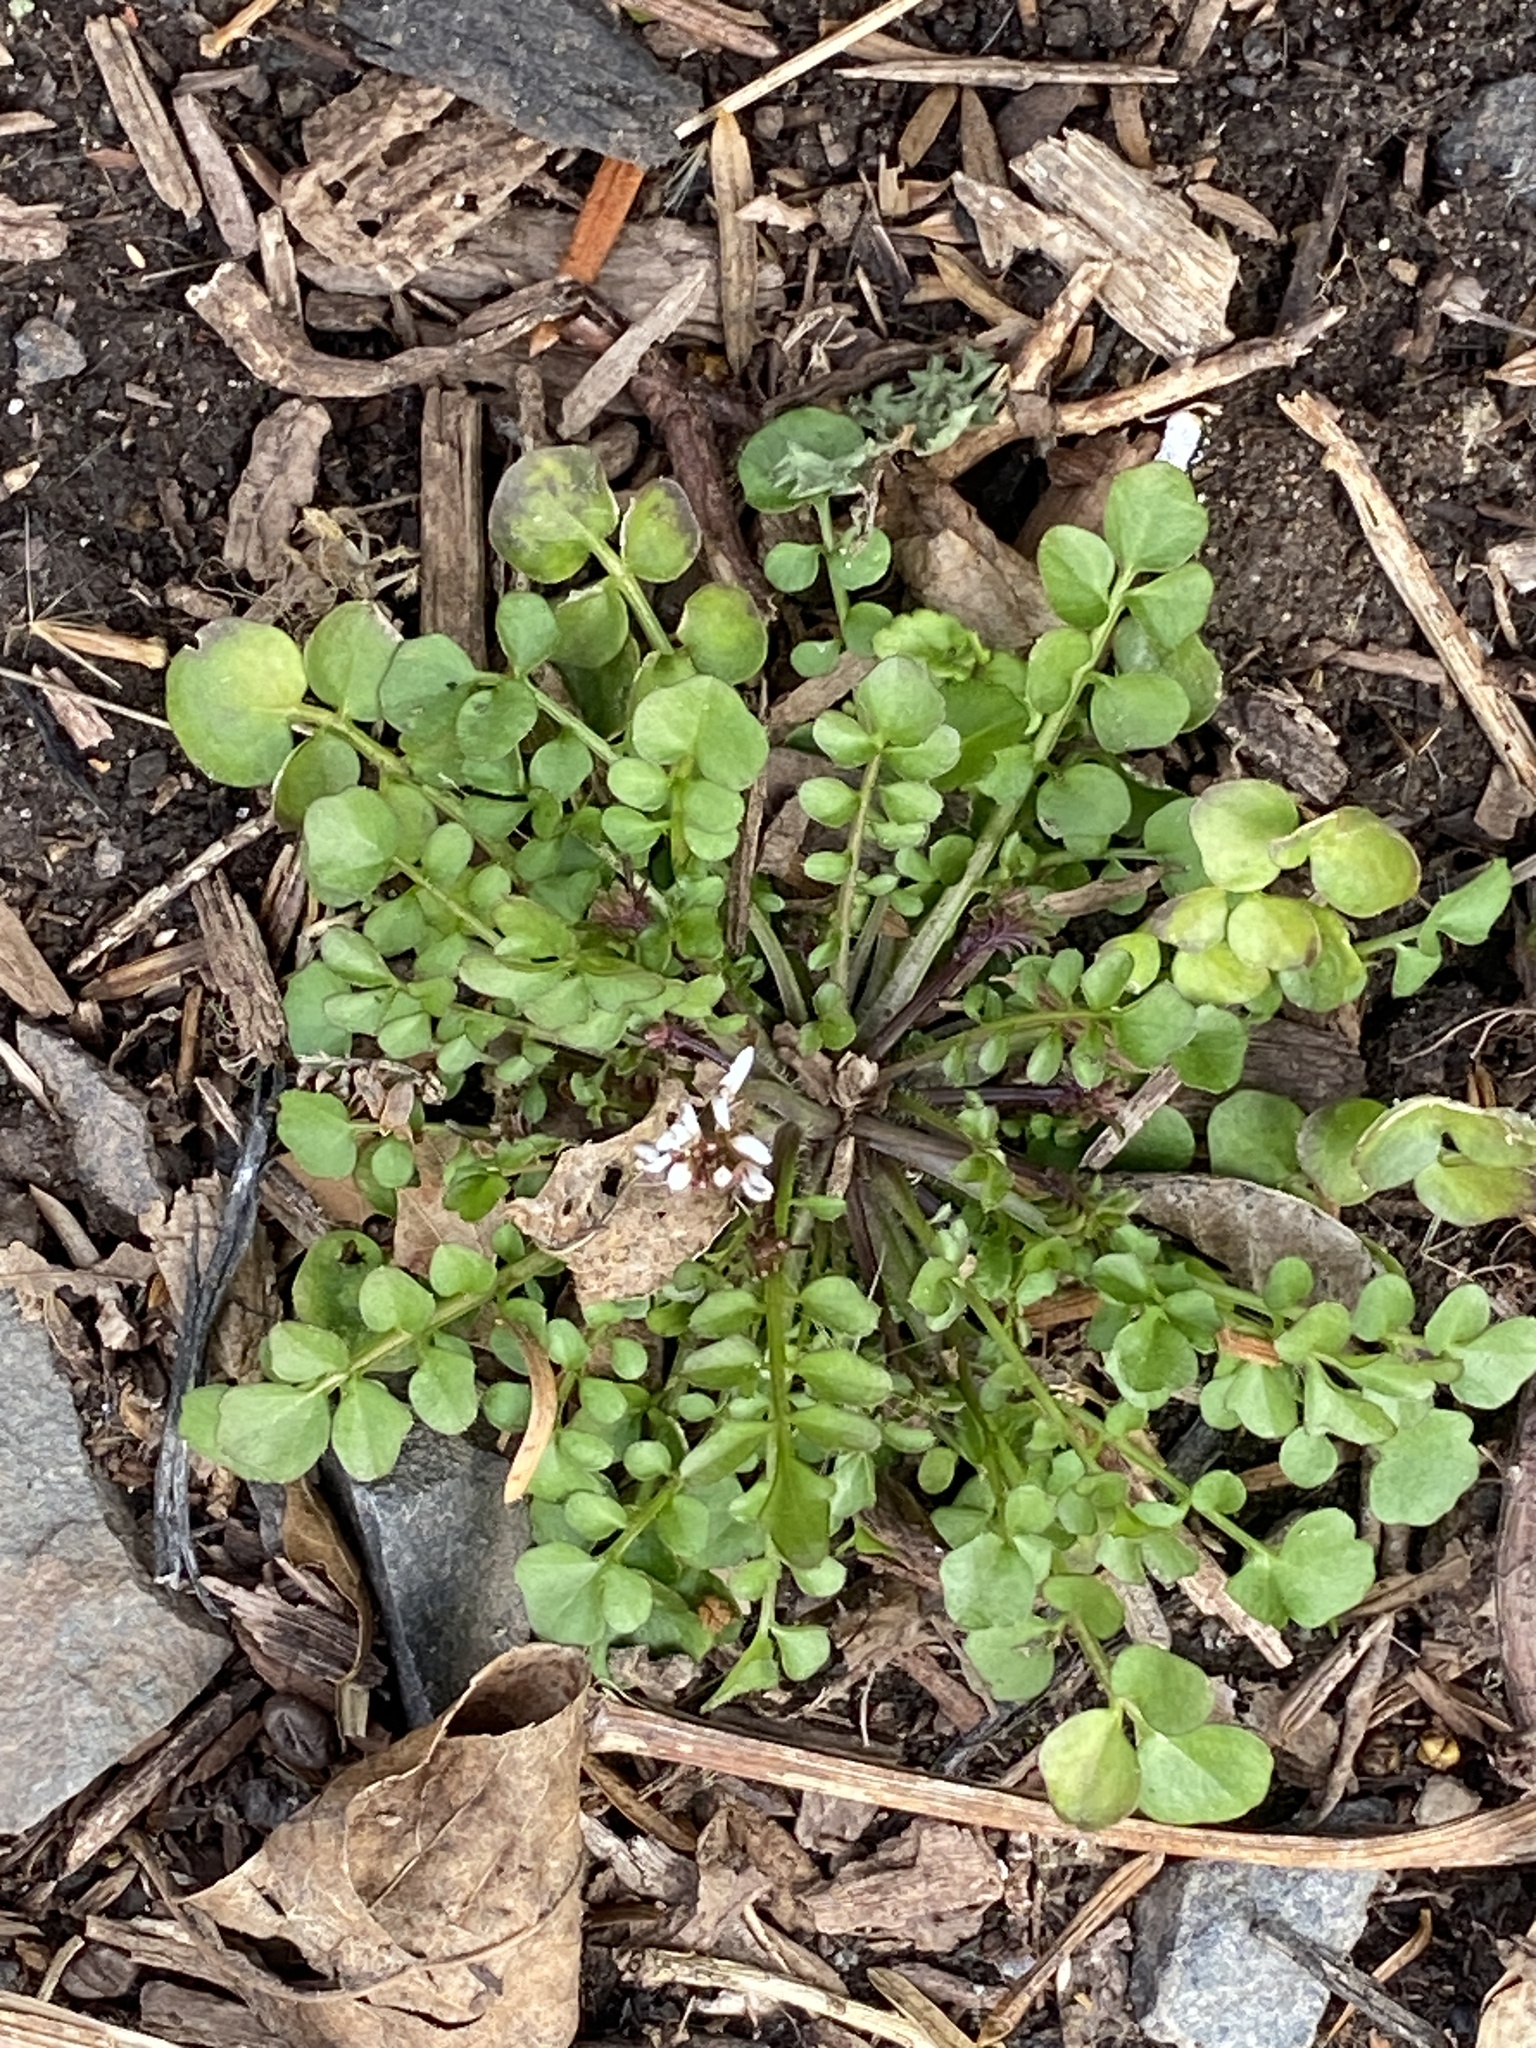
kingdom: Plantae
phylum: Tracheophyta
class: Magnoliopsida
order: Brassicales
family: Brassicaceae
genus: Cardamine
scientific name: Cardamine hirsuta
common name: Hairy bittercress
